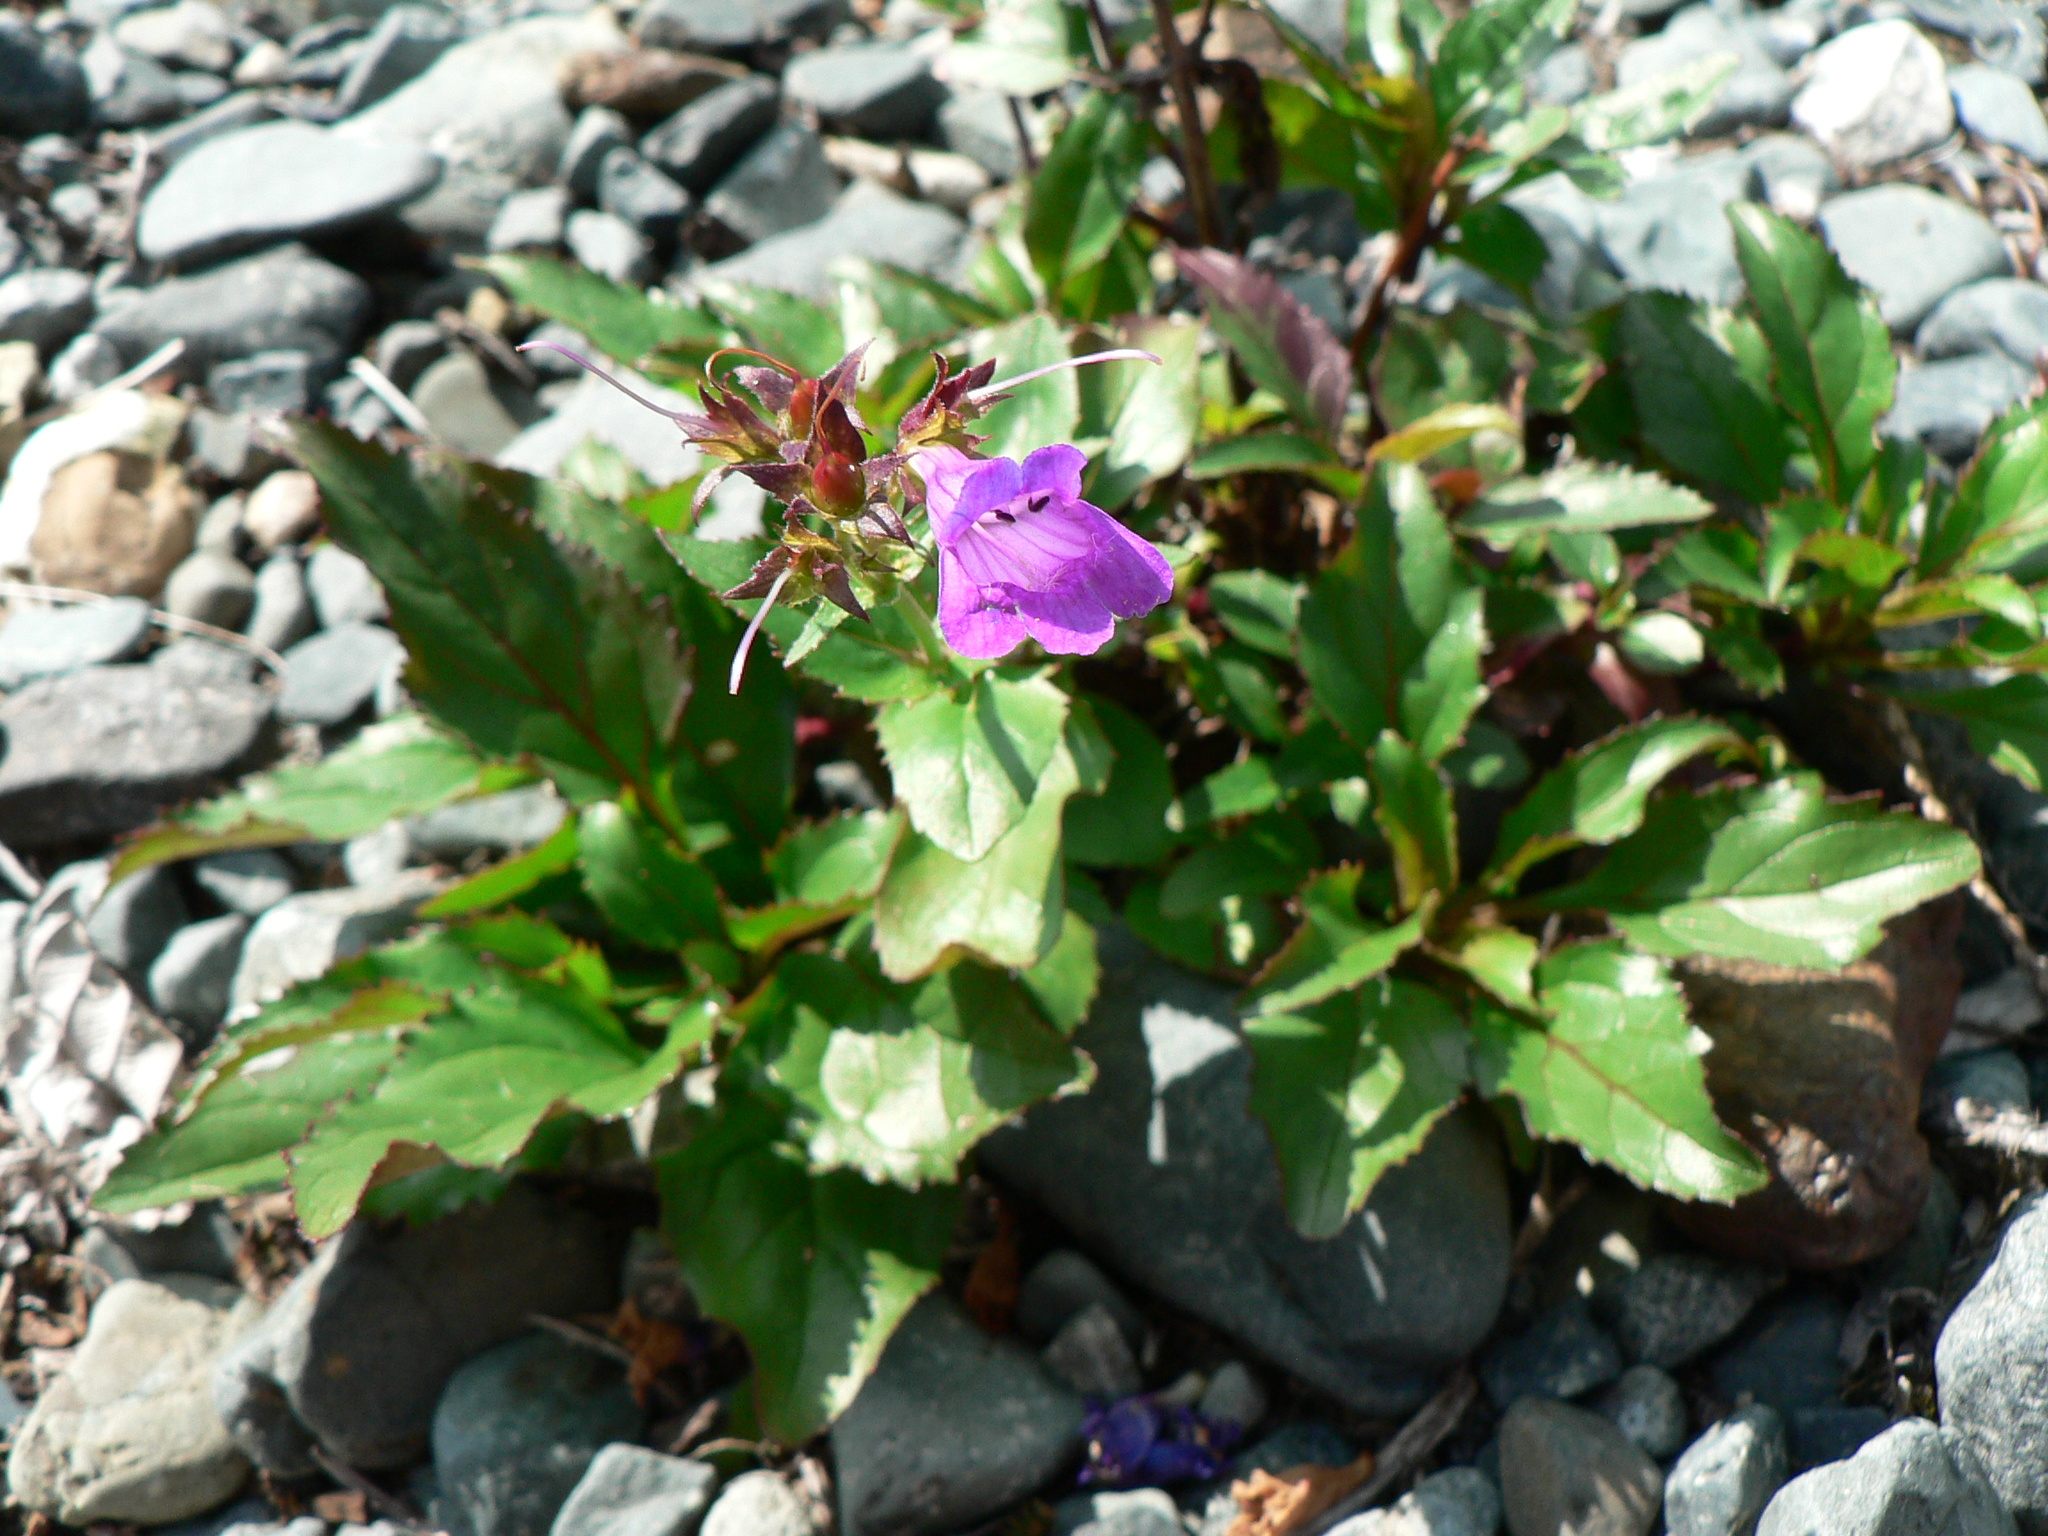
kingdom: Plantae
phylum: Tracheophyta
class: Magnoliopsida
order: Lamiales
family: Plantaginaceae
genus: Penstemon
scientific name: Penstemon serrulatus
